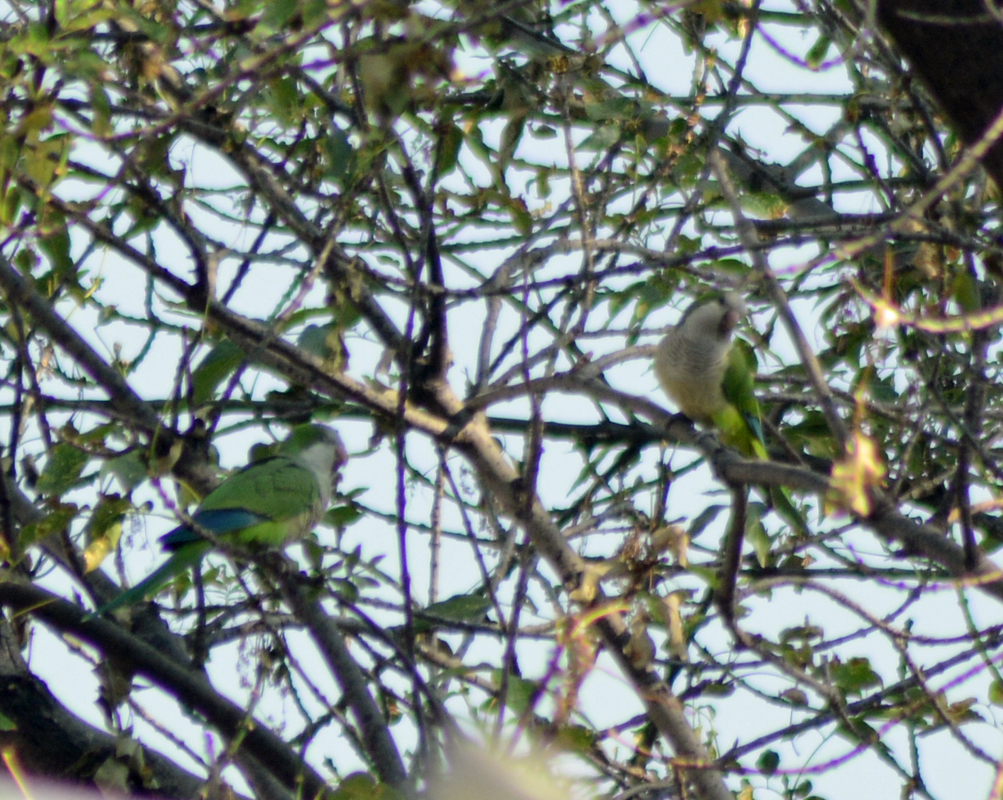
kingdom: Animalia
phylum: Chordata
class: Aves
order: Psittaciformes
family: Psittacidae
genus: Myiopsitta
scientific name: Myiopsitta monachus
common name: Monk parakeet
